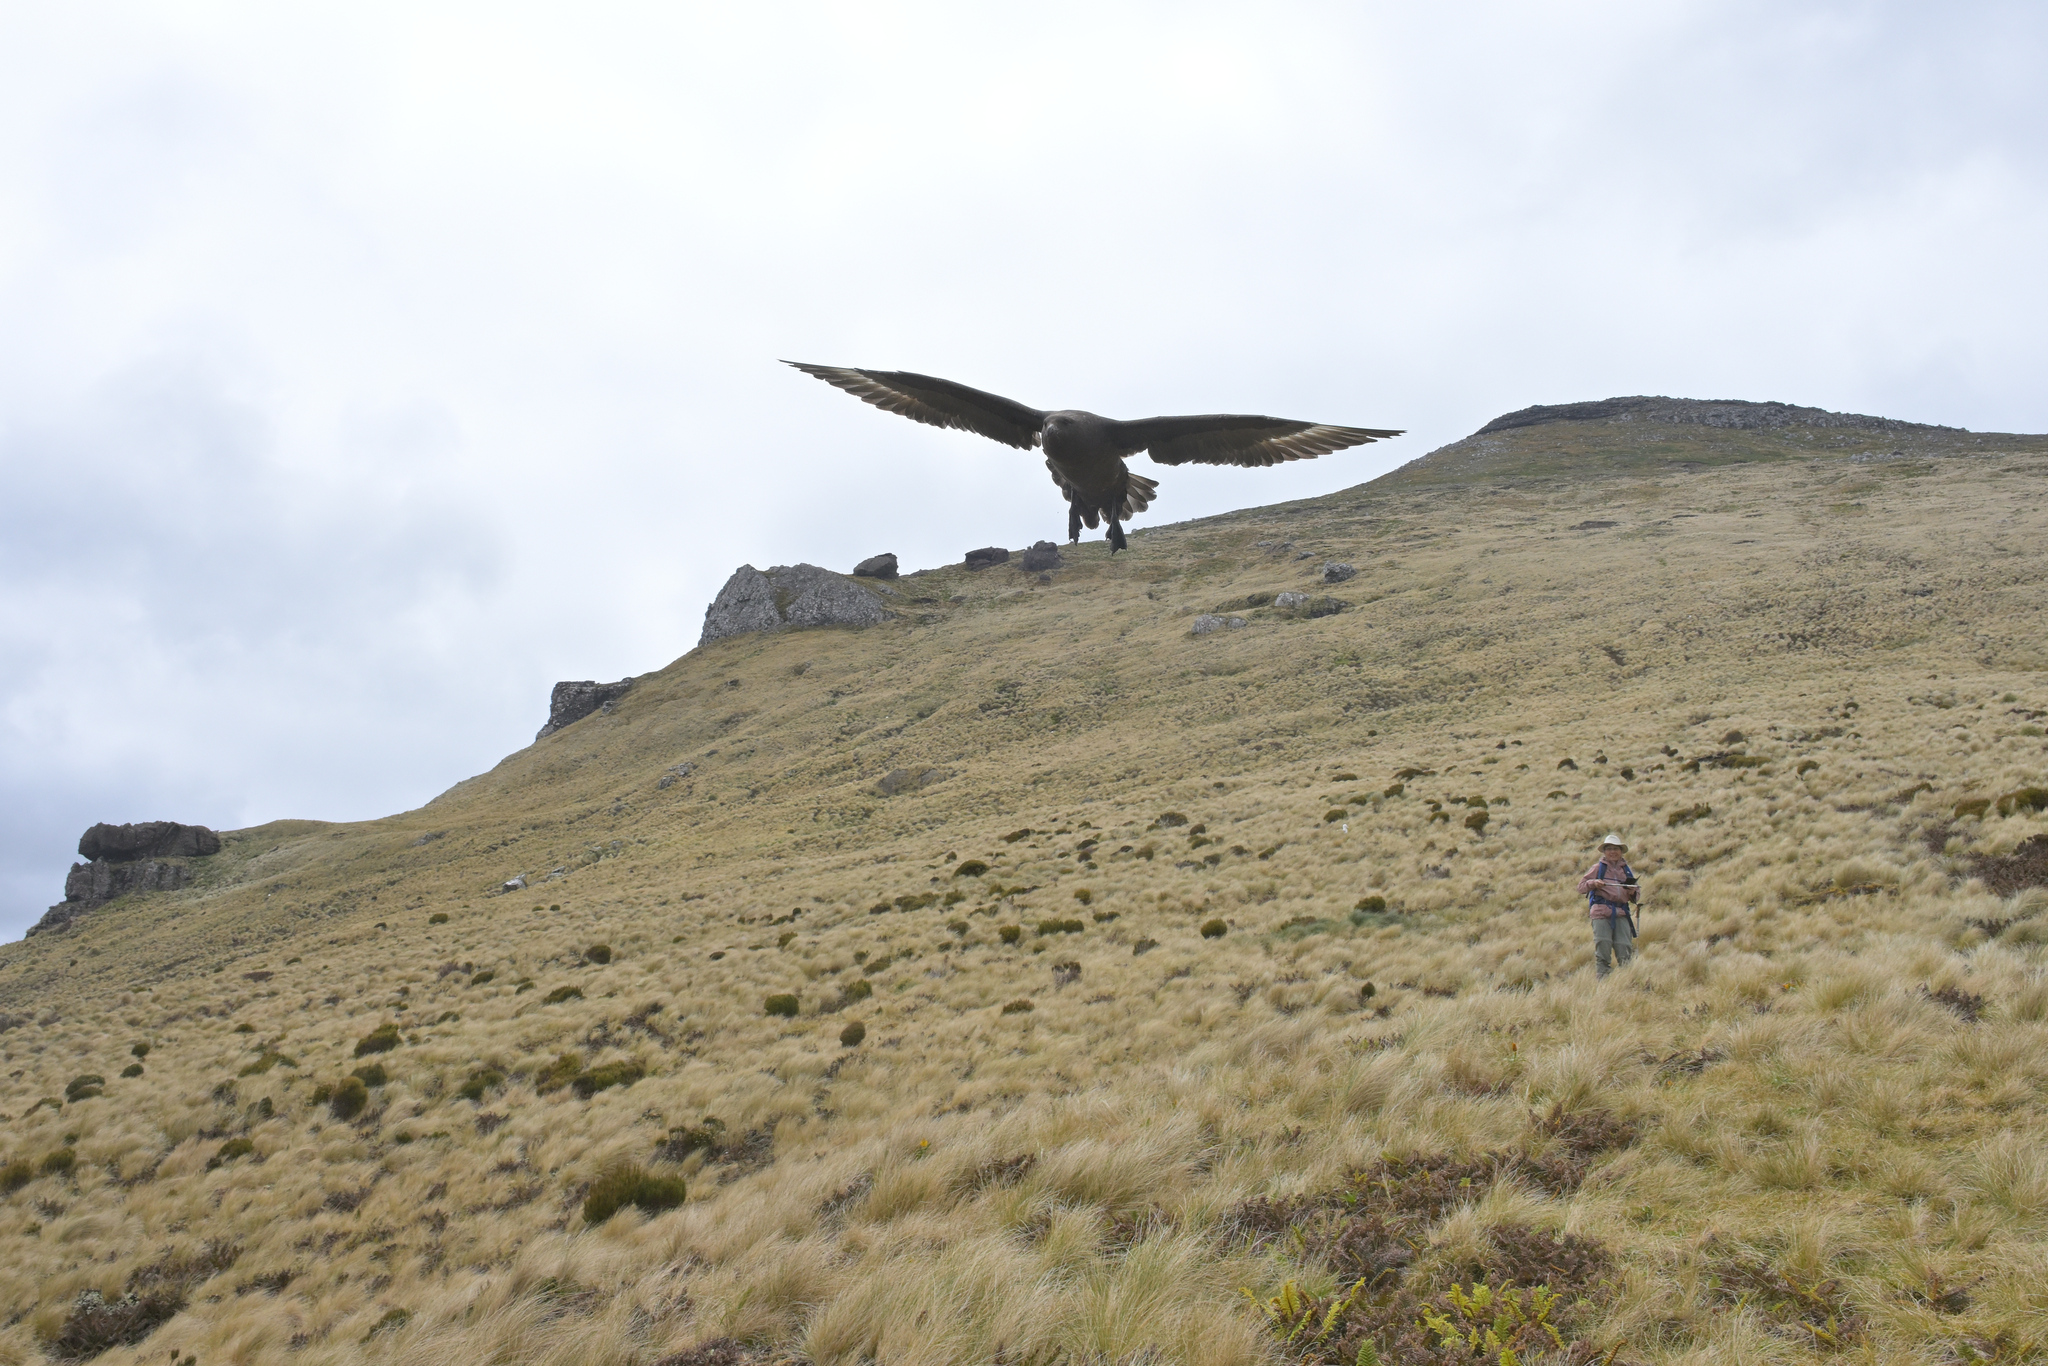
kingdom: Animalia
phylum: Chordata
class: Aves
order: Charadriiformes
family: Stercorariidae
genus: Stercorarius
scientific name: Stercorarius antarcticus
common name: Brown skua
